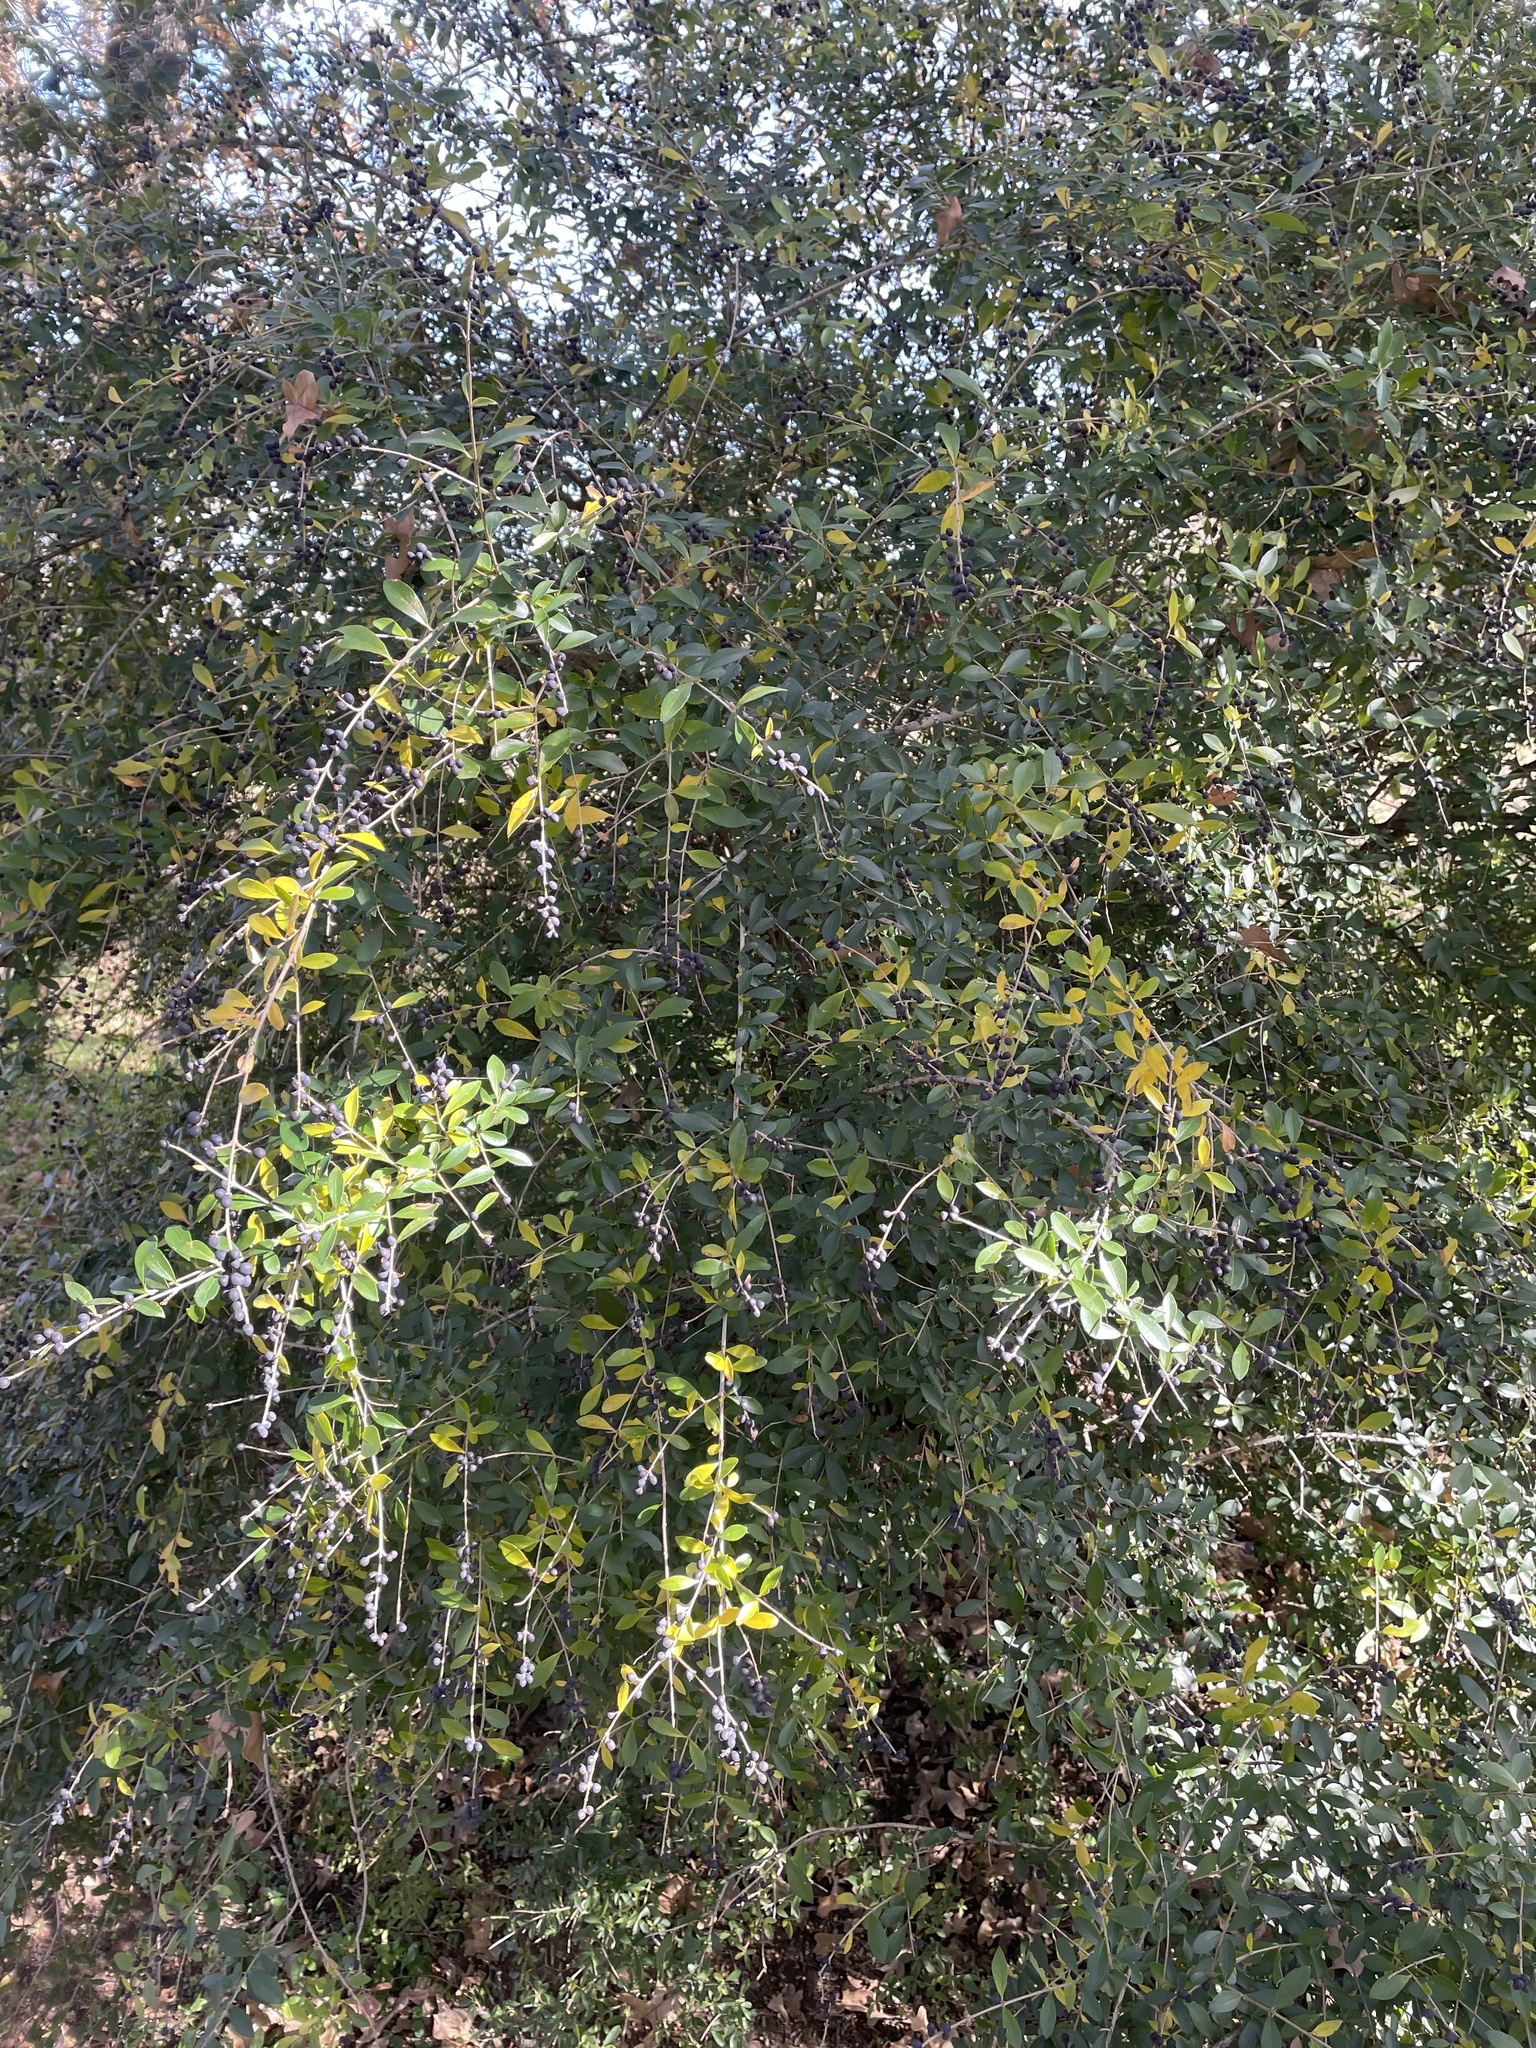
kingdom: Plantae
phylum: Tracheophyta
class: Magnoliopsida
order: Lamiales
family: Oleaceae
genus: Ligustrum
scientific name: Ligustrum quihoui
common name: Waxyleaf privet
